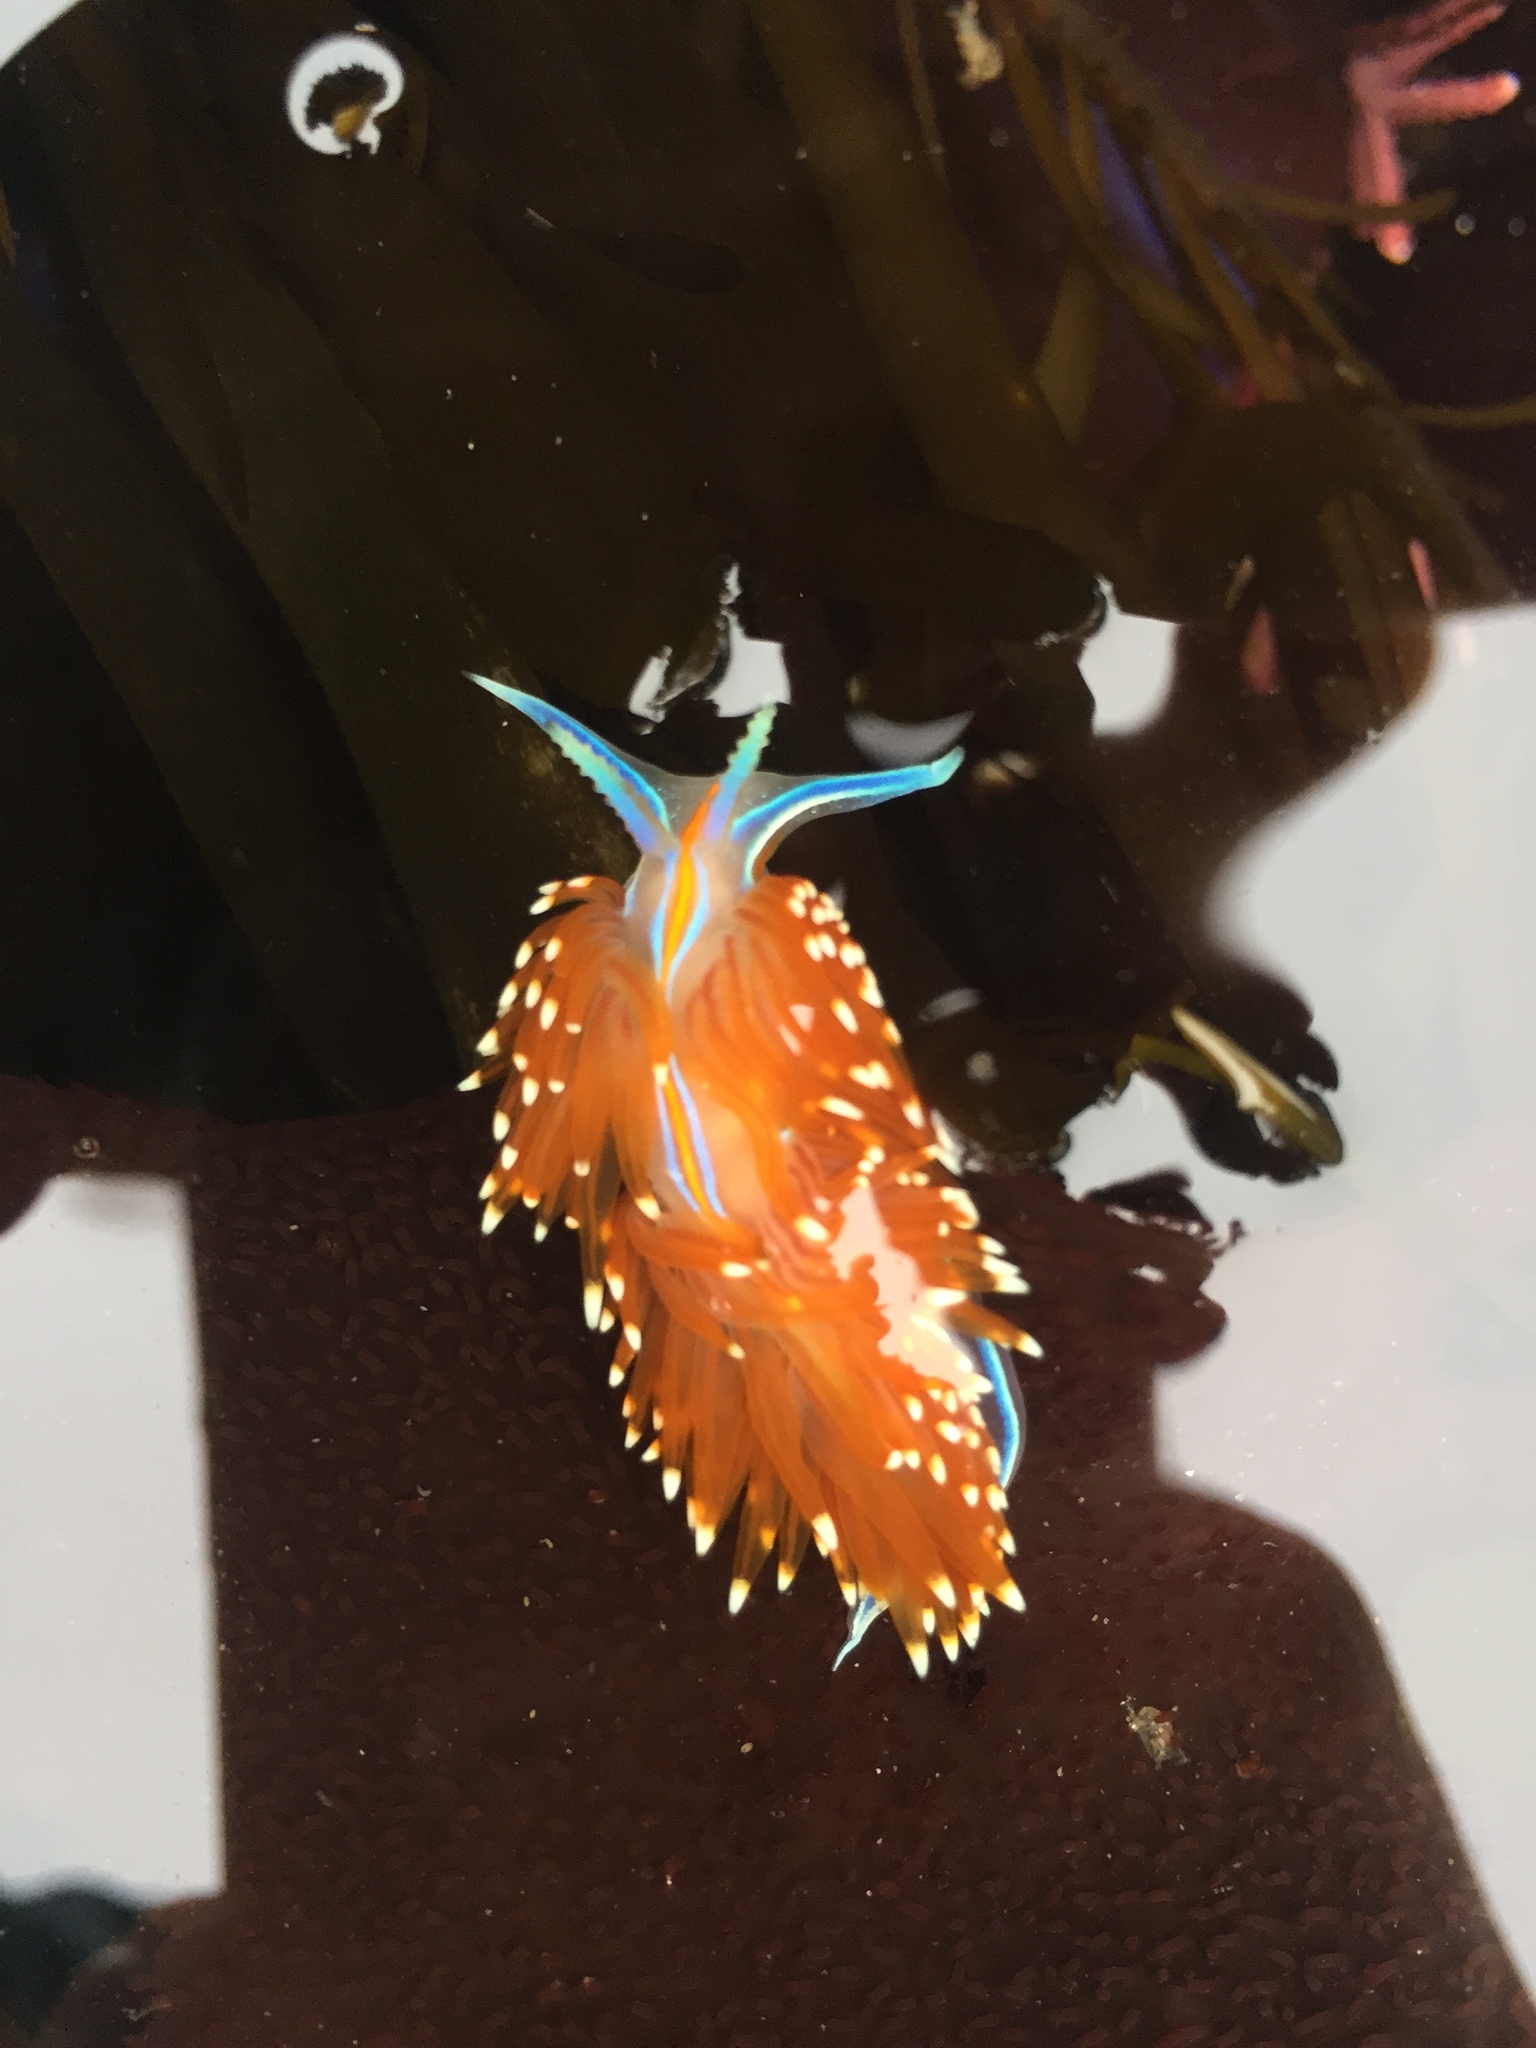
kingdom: Animalia
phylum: Mollusca
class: Gastropoda
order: Nudibranchia
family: Myrrhinidae
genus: Hermissenda
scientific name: Hermissenda opalescens
